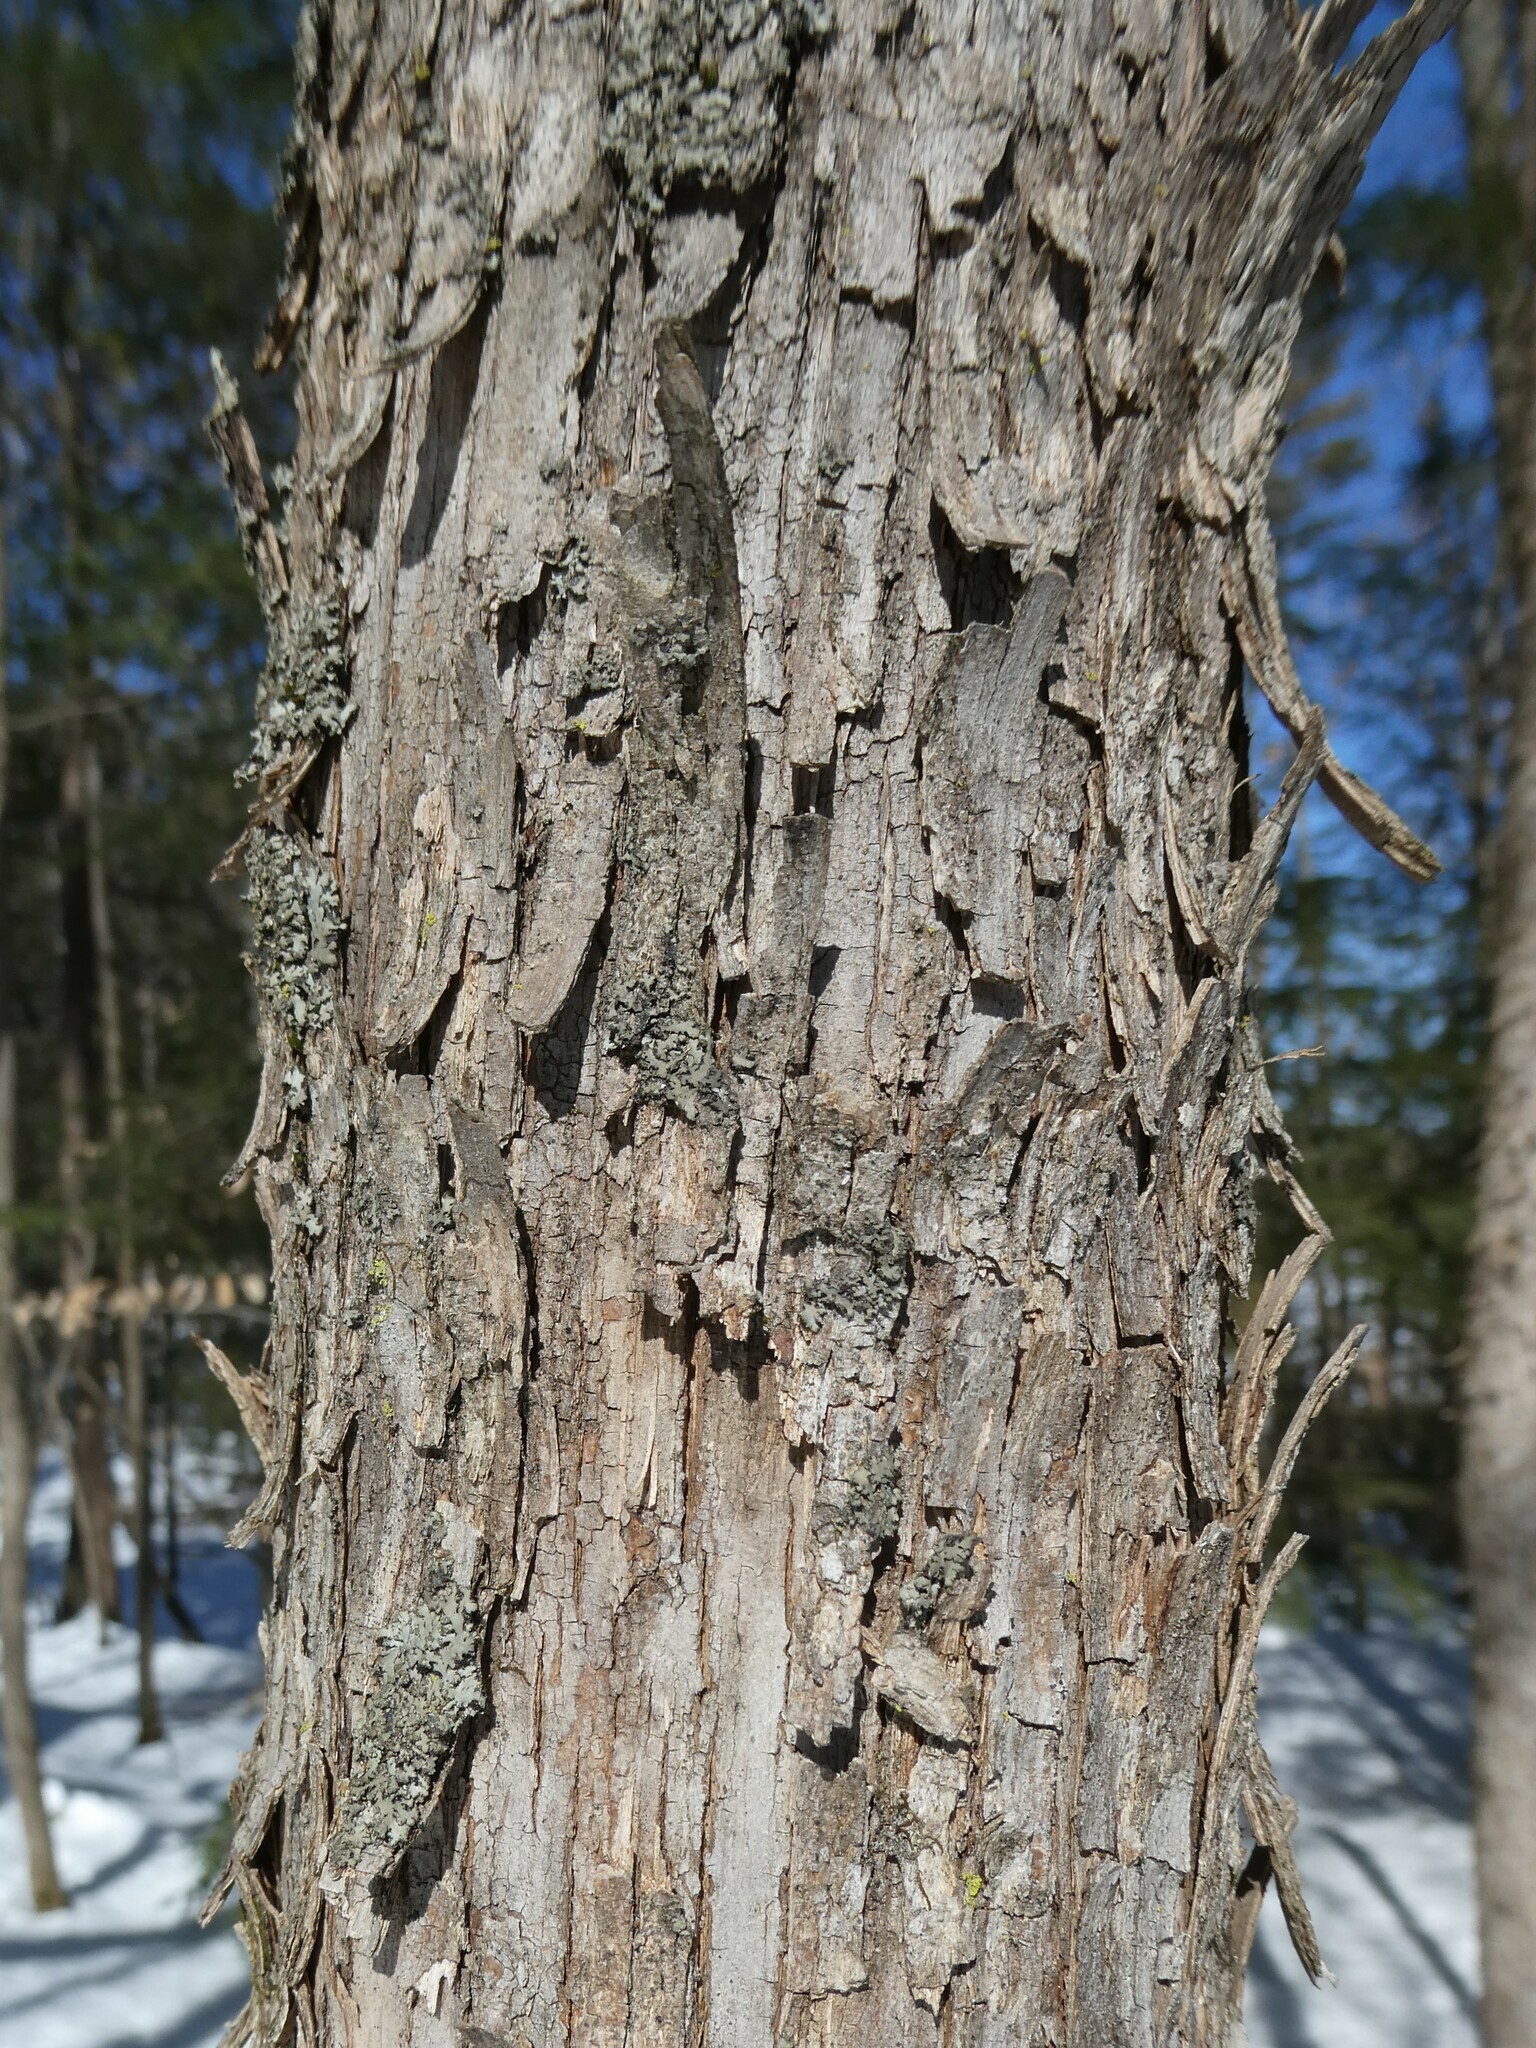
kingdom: Plantae
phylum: Tracheophyta
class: Magnoliopsida
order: Fagales
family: Betulaceae
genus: Ostrya
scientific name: Ostrya virginiana
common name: Ironwood
